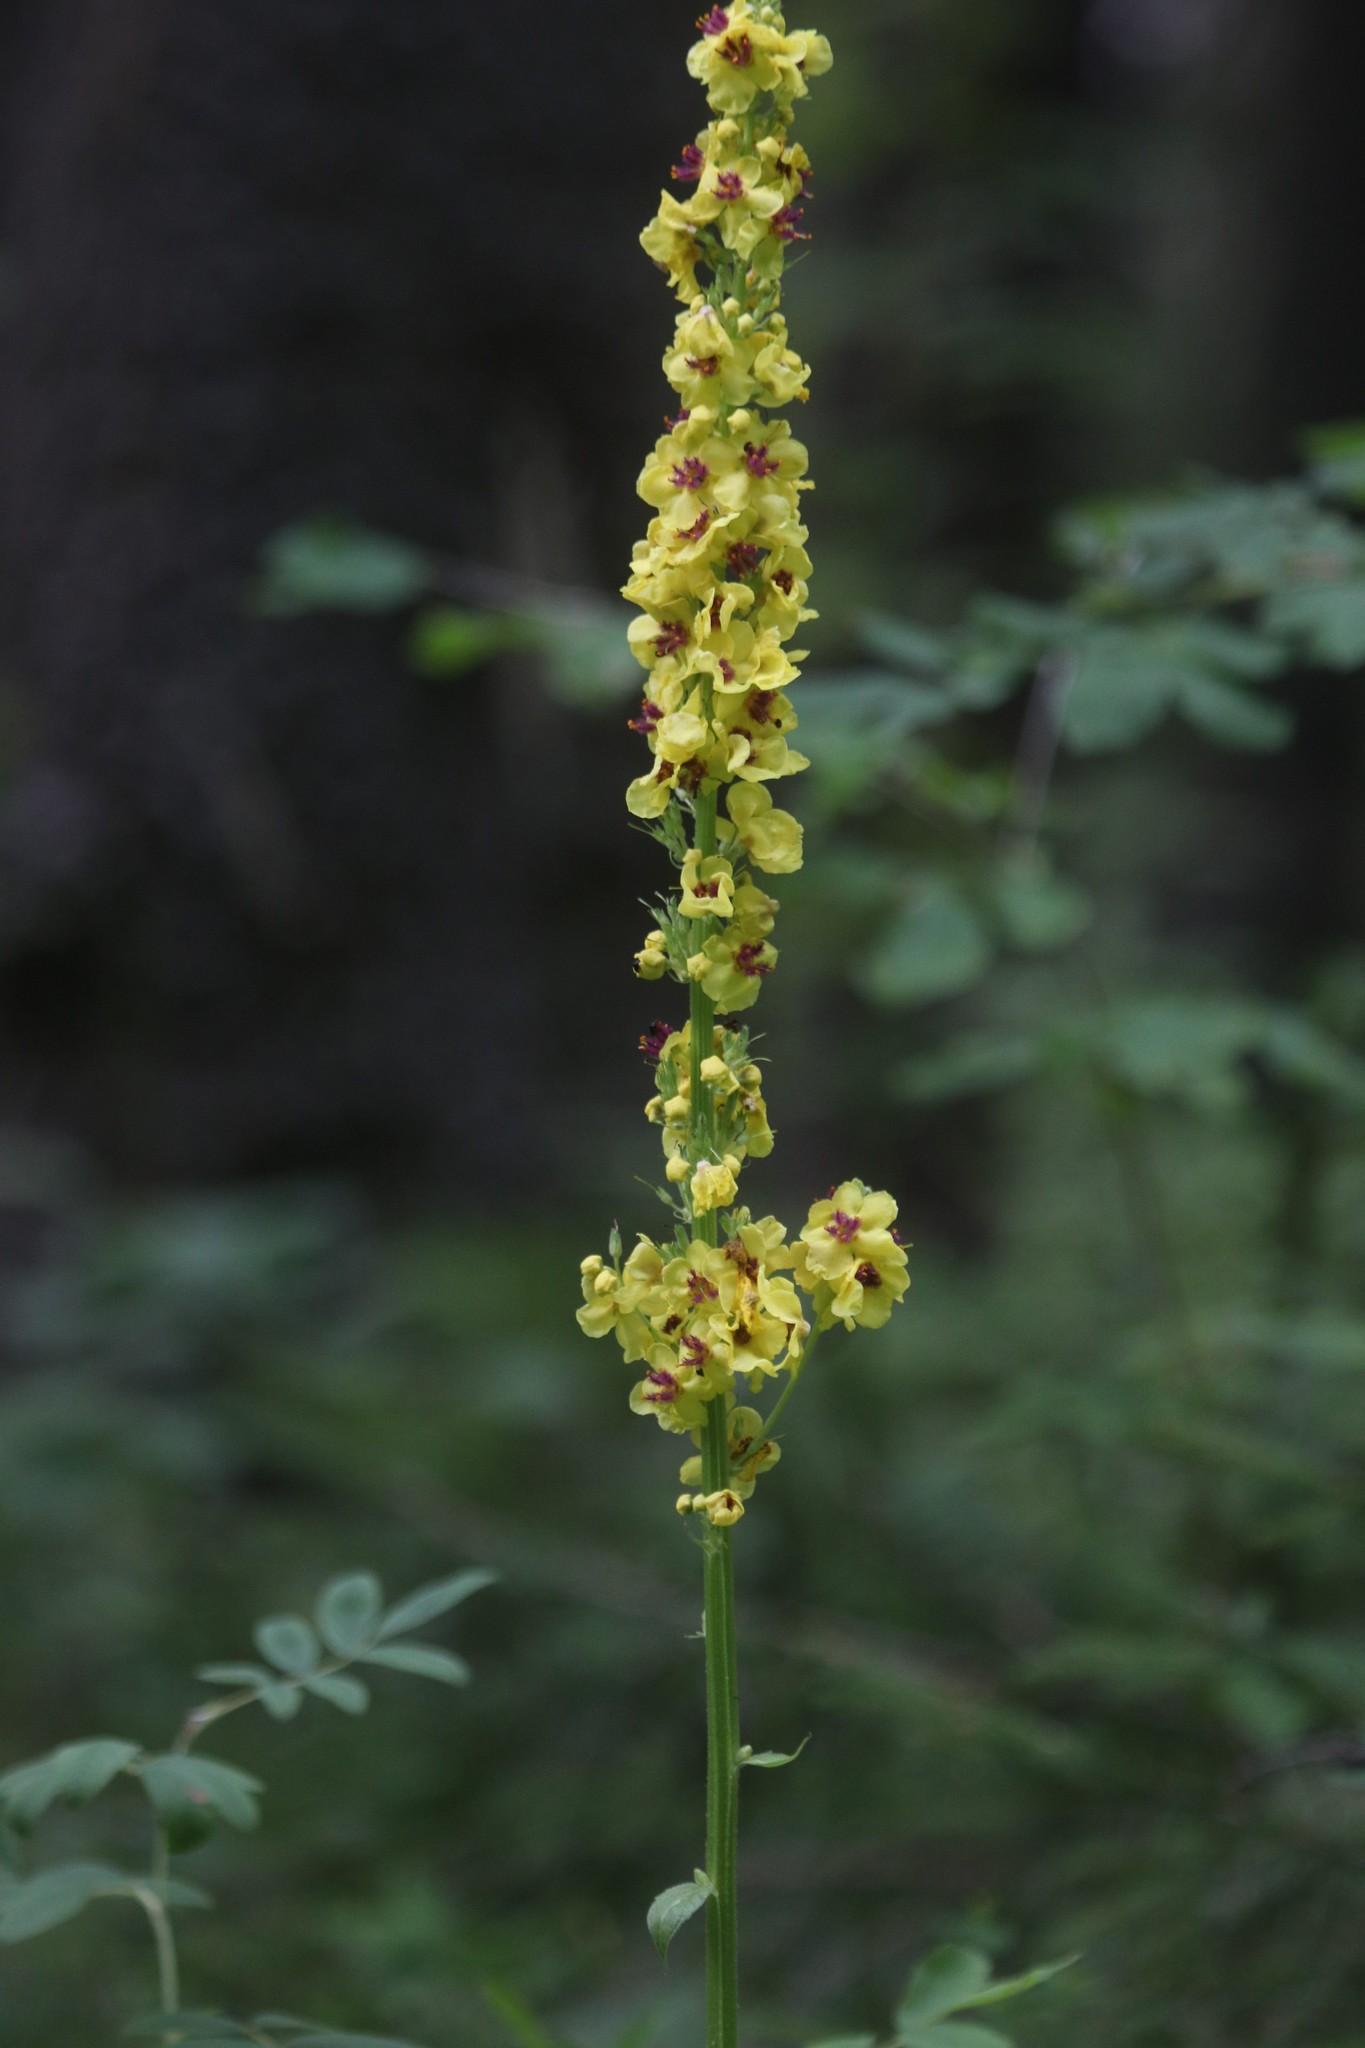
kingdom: Plantae
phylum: Tracheophyta
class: Magnoliopsida
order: Lamiales
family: Scrophulariaceae
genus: Verbascum
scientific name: Verbascum nigrum
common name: Dark mullein
